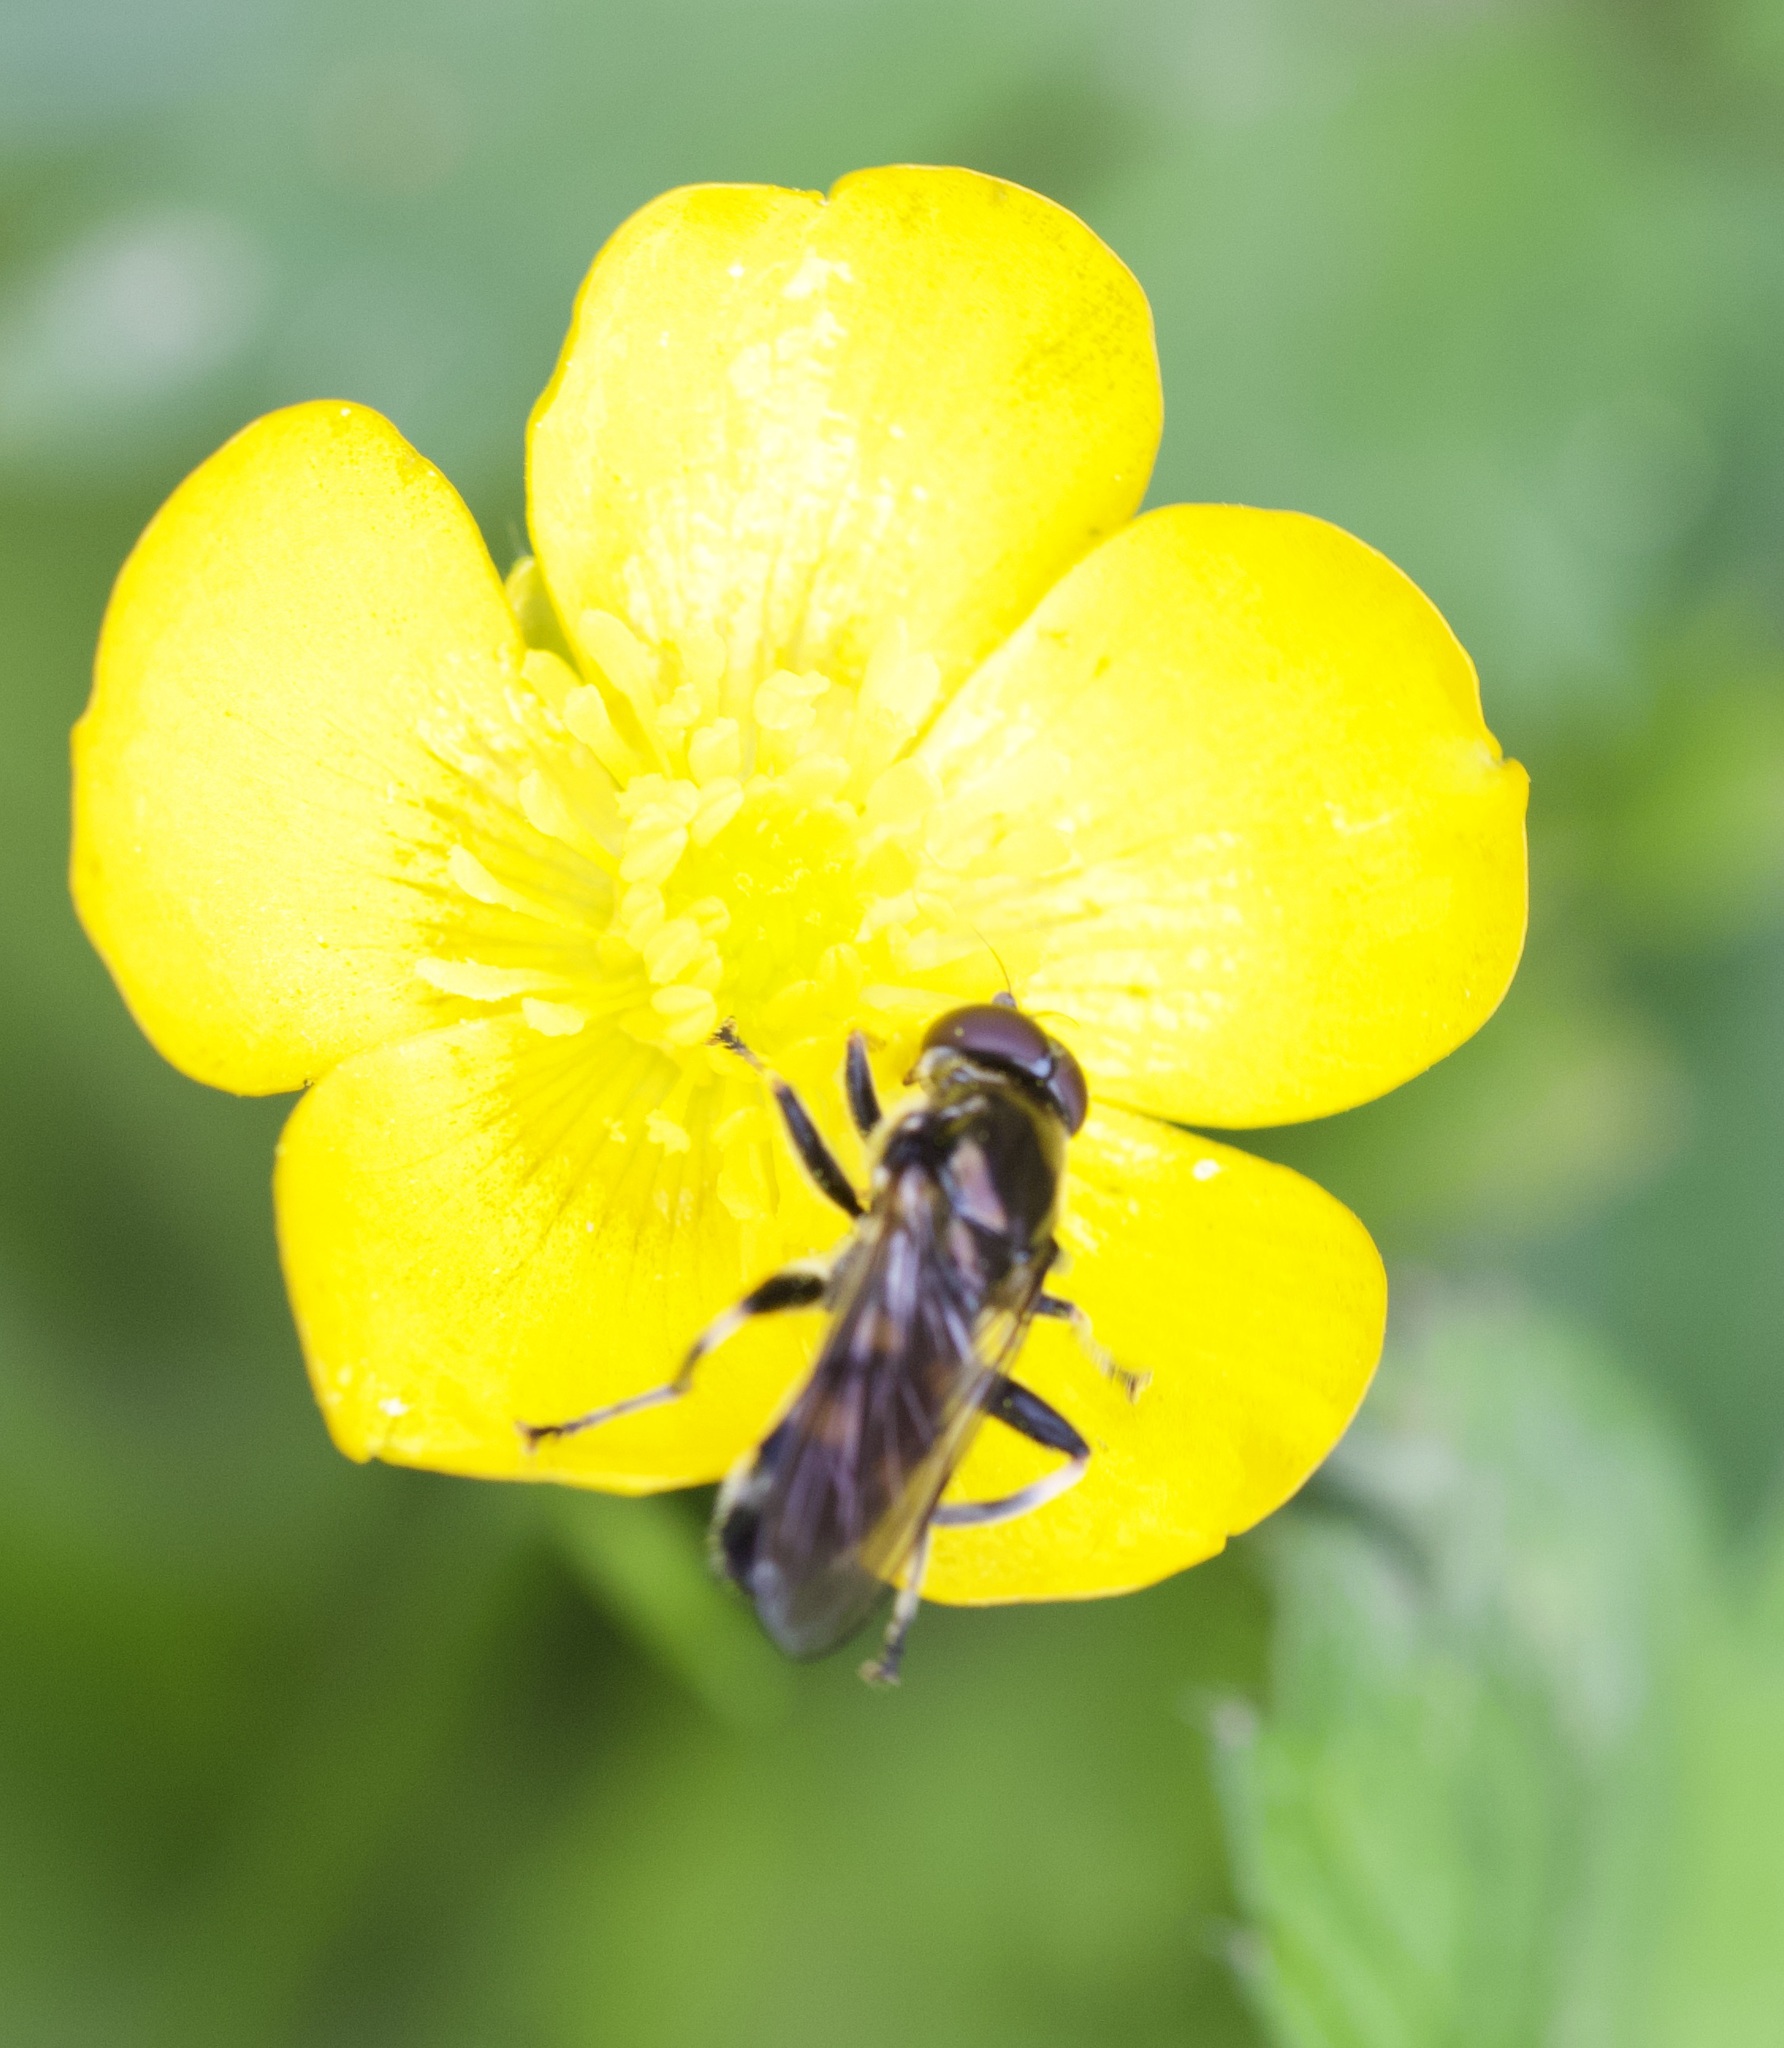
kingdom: Animalia
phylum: Arthropoda
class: Insecta
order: Diptera
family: Syrphidae
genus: Xylota
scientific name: Xylota jakutorum
